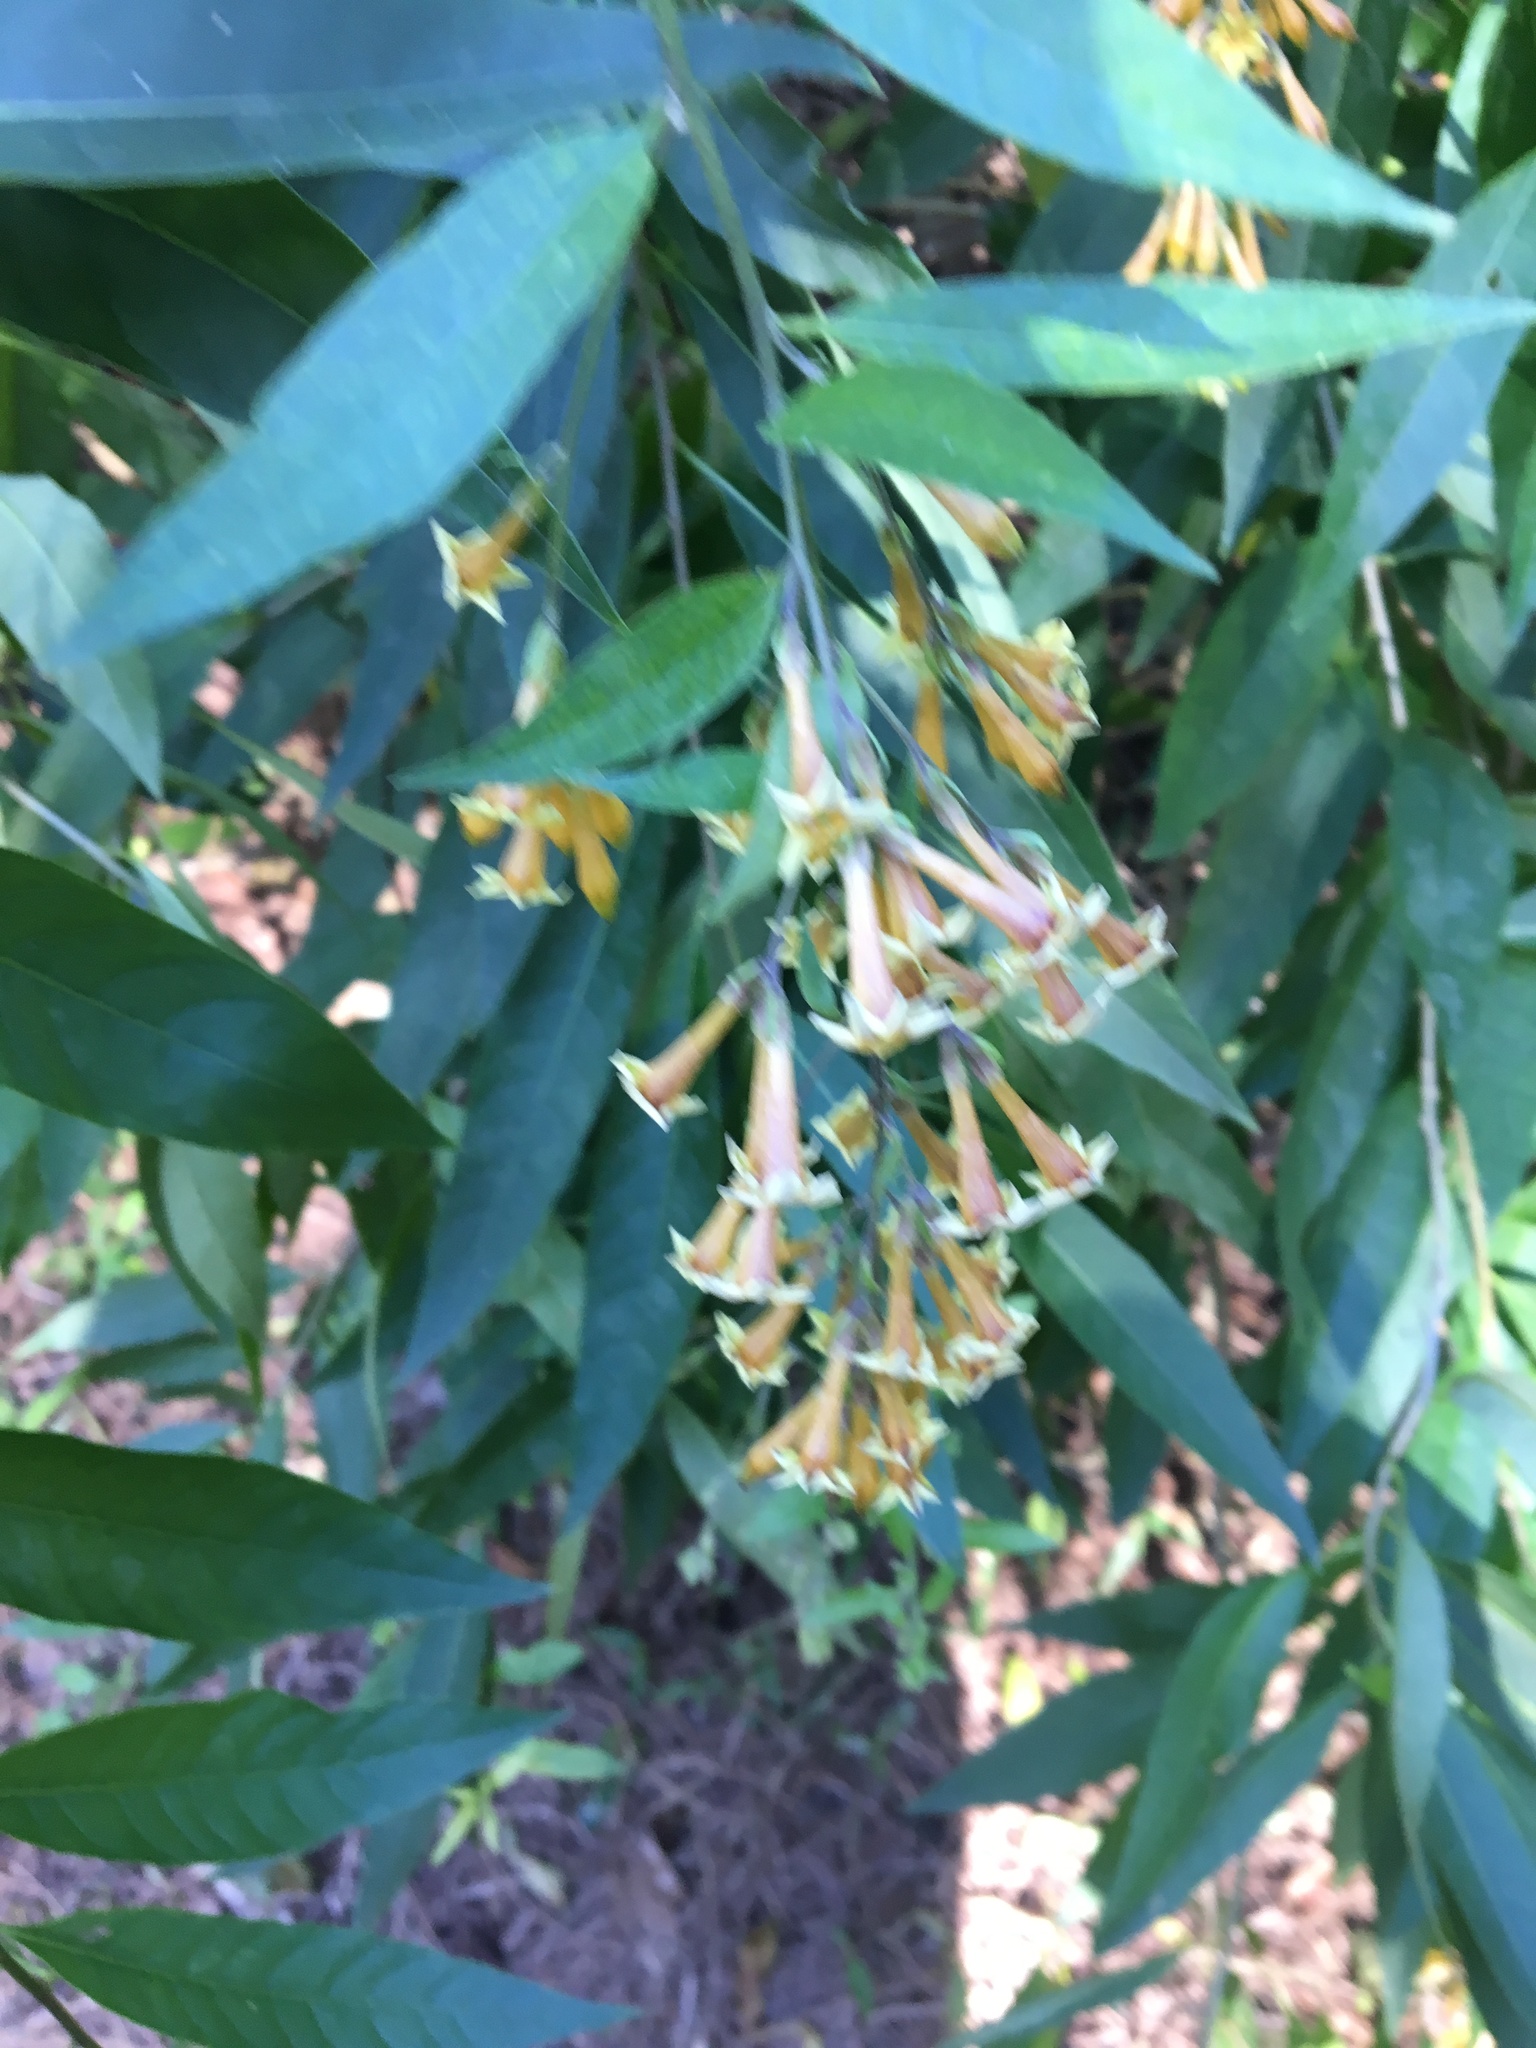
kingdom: Plantae
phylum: Tracheophyta
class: Magnoliopsida
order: Solanales
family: Solanaceae
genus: Cestrum
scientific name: Cestrum parqui
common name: Chilean cestrum
